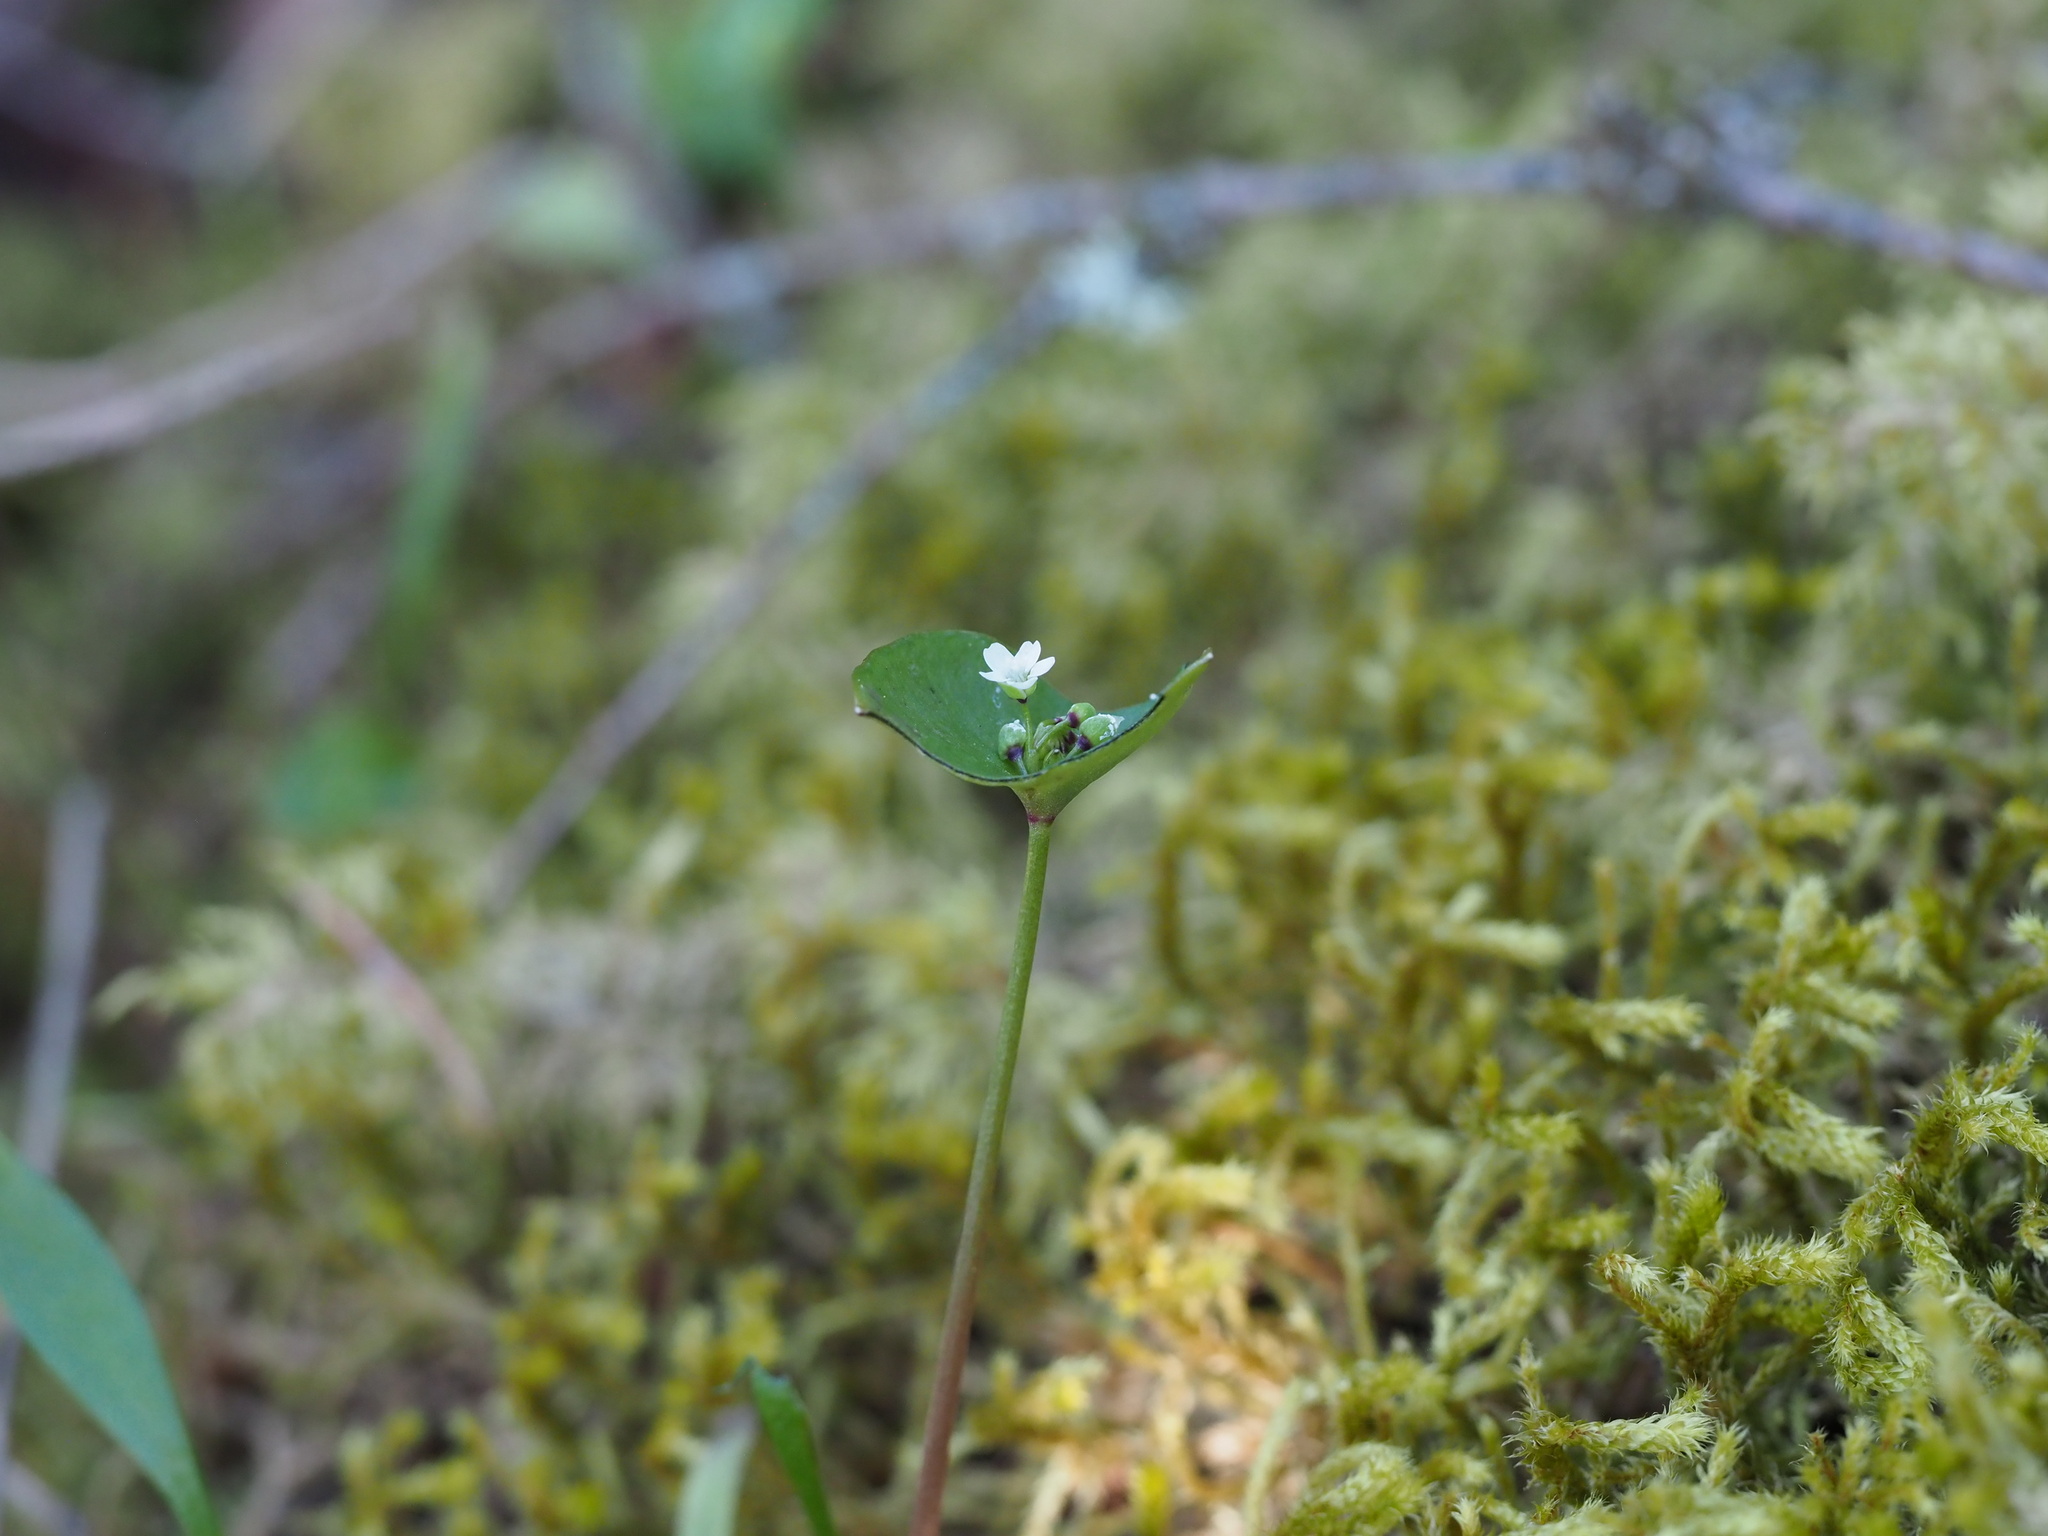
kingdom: Plantae
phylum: Tracheophyta
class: Magnoliopsida
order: Caryophyllales
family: Montiaceae
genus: Claytonia
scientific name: Claytonia parviflora
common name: Indian-lettuce
